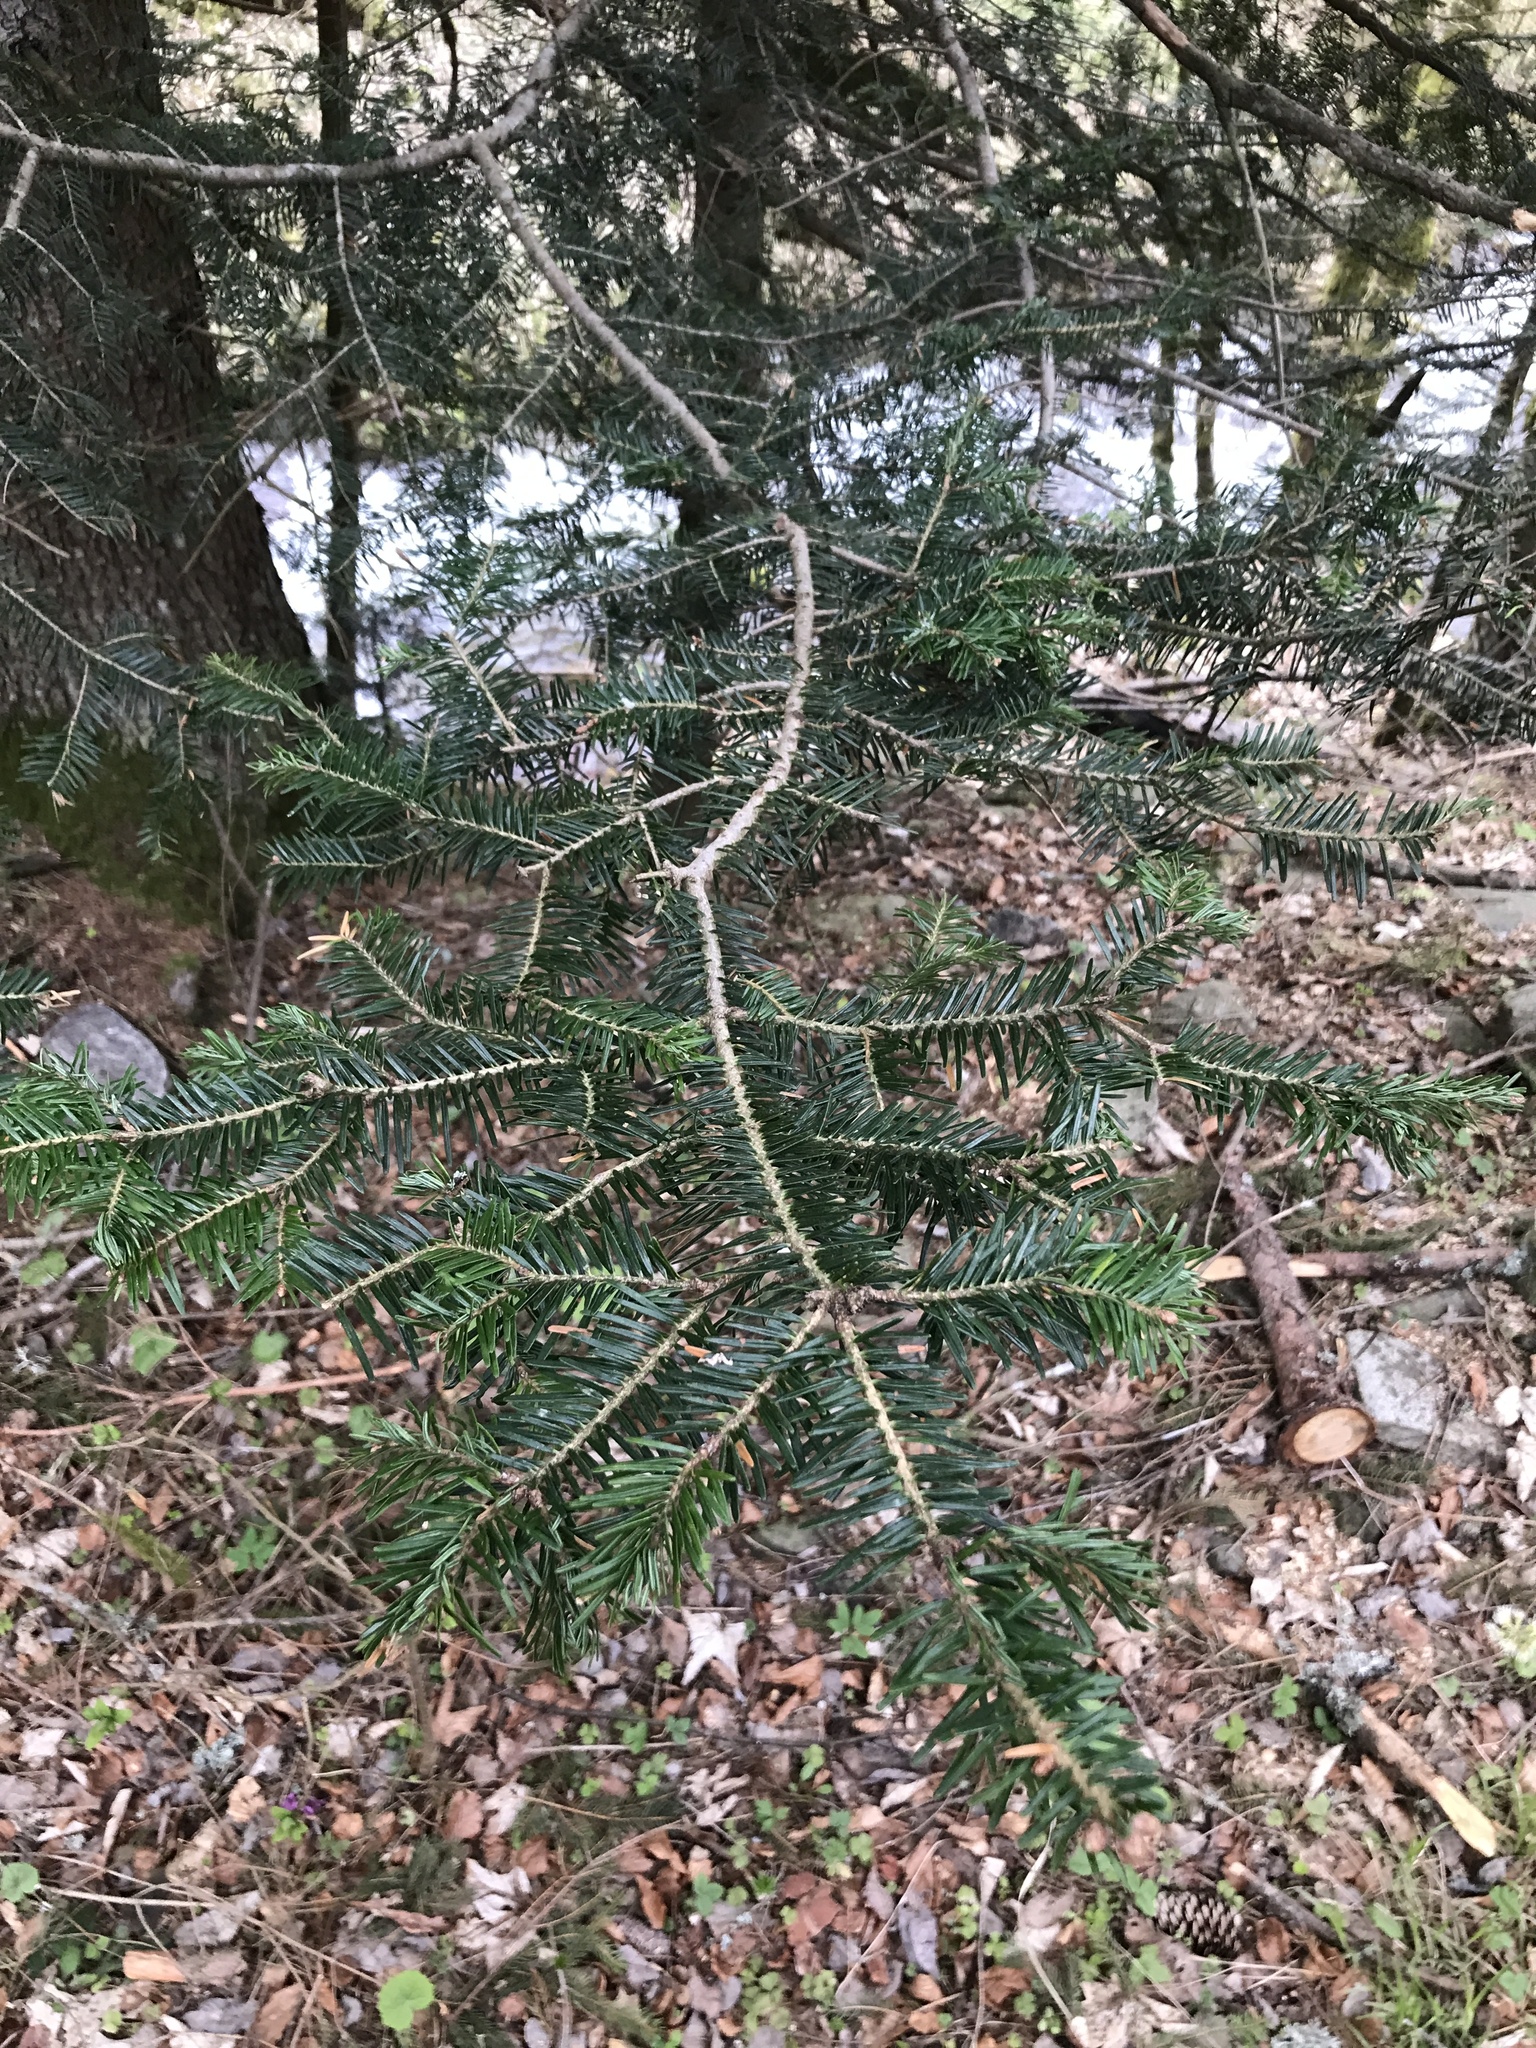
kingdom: Plantae
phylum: Tracheophyta
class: Pinopsida
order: Pinales
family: Pinaceae
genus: Abies
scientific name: Abies alba
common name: Silver fir
